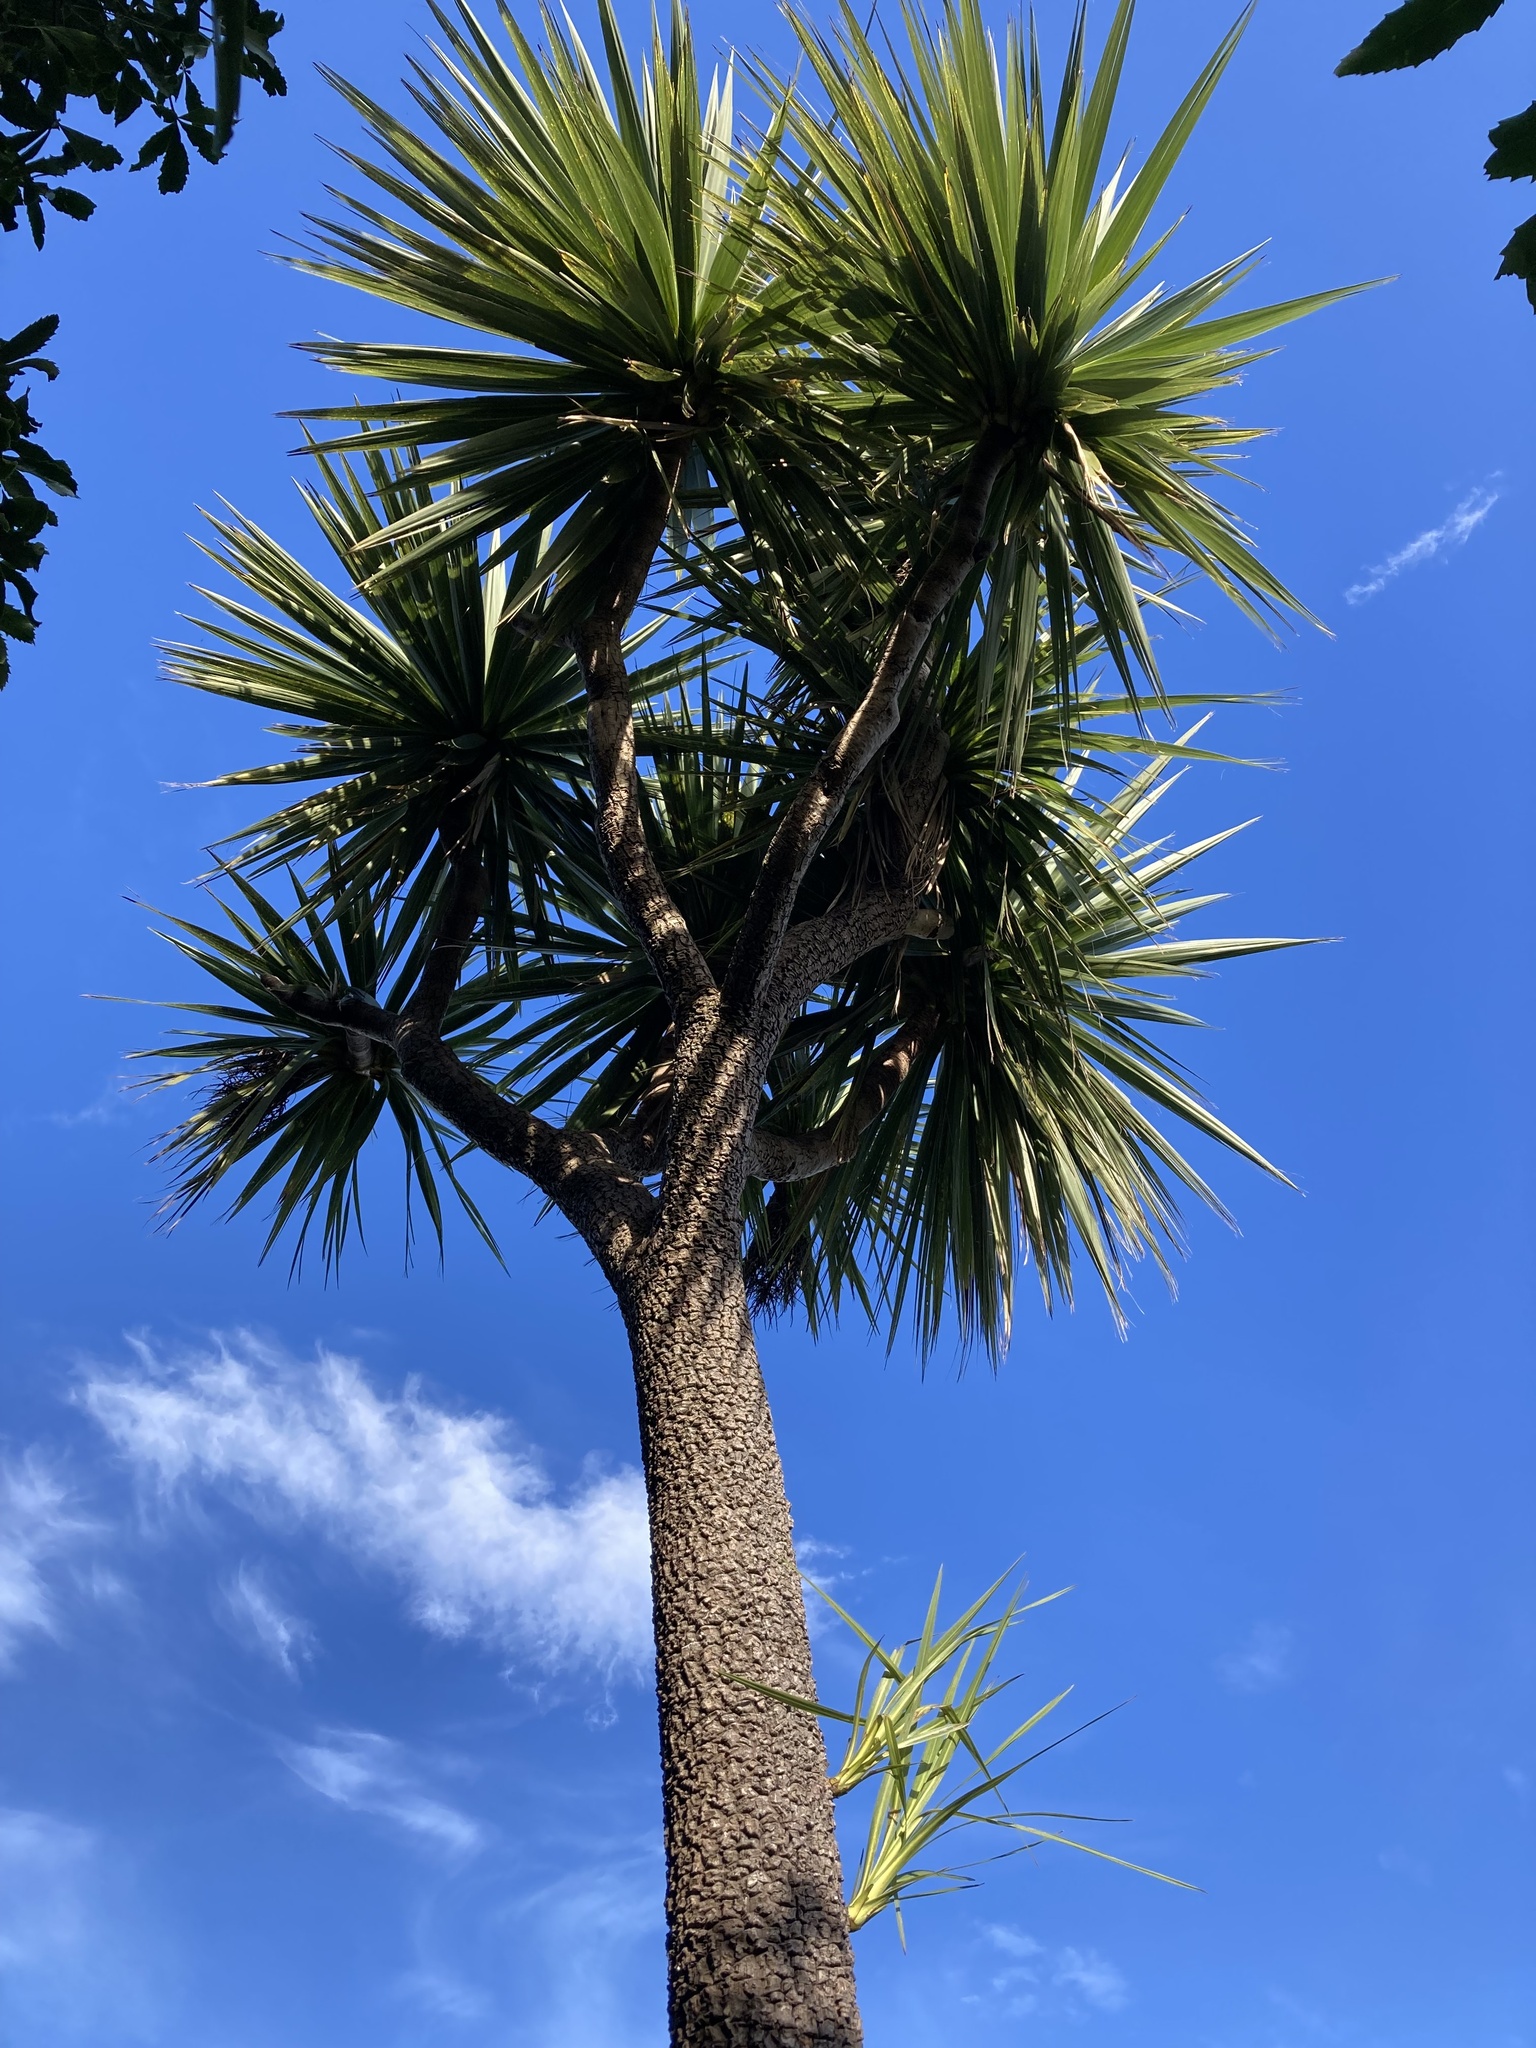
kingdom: Plantae
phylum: Tracheophyta
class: Liliopsida
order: Asparagales
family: Asparagaceae
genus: Cordyline
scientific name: Cordyline australis
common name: Cabbage-palm
